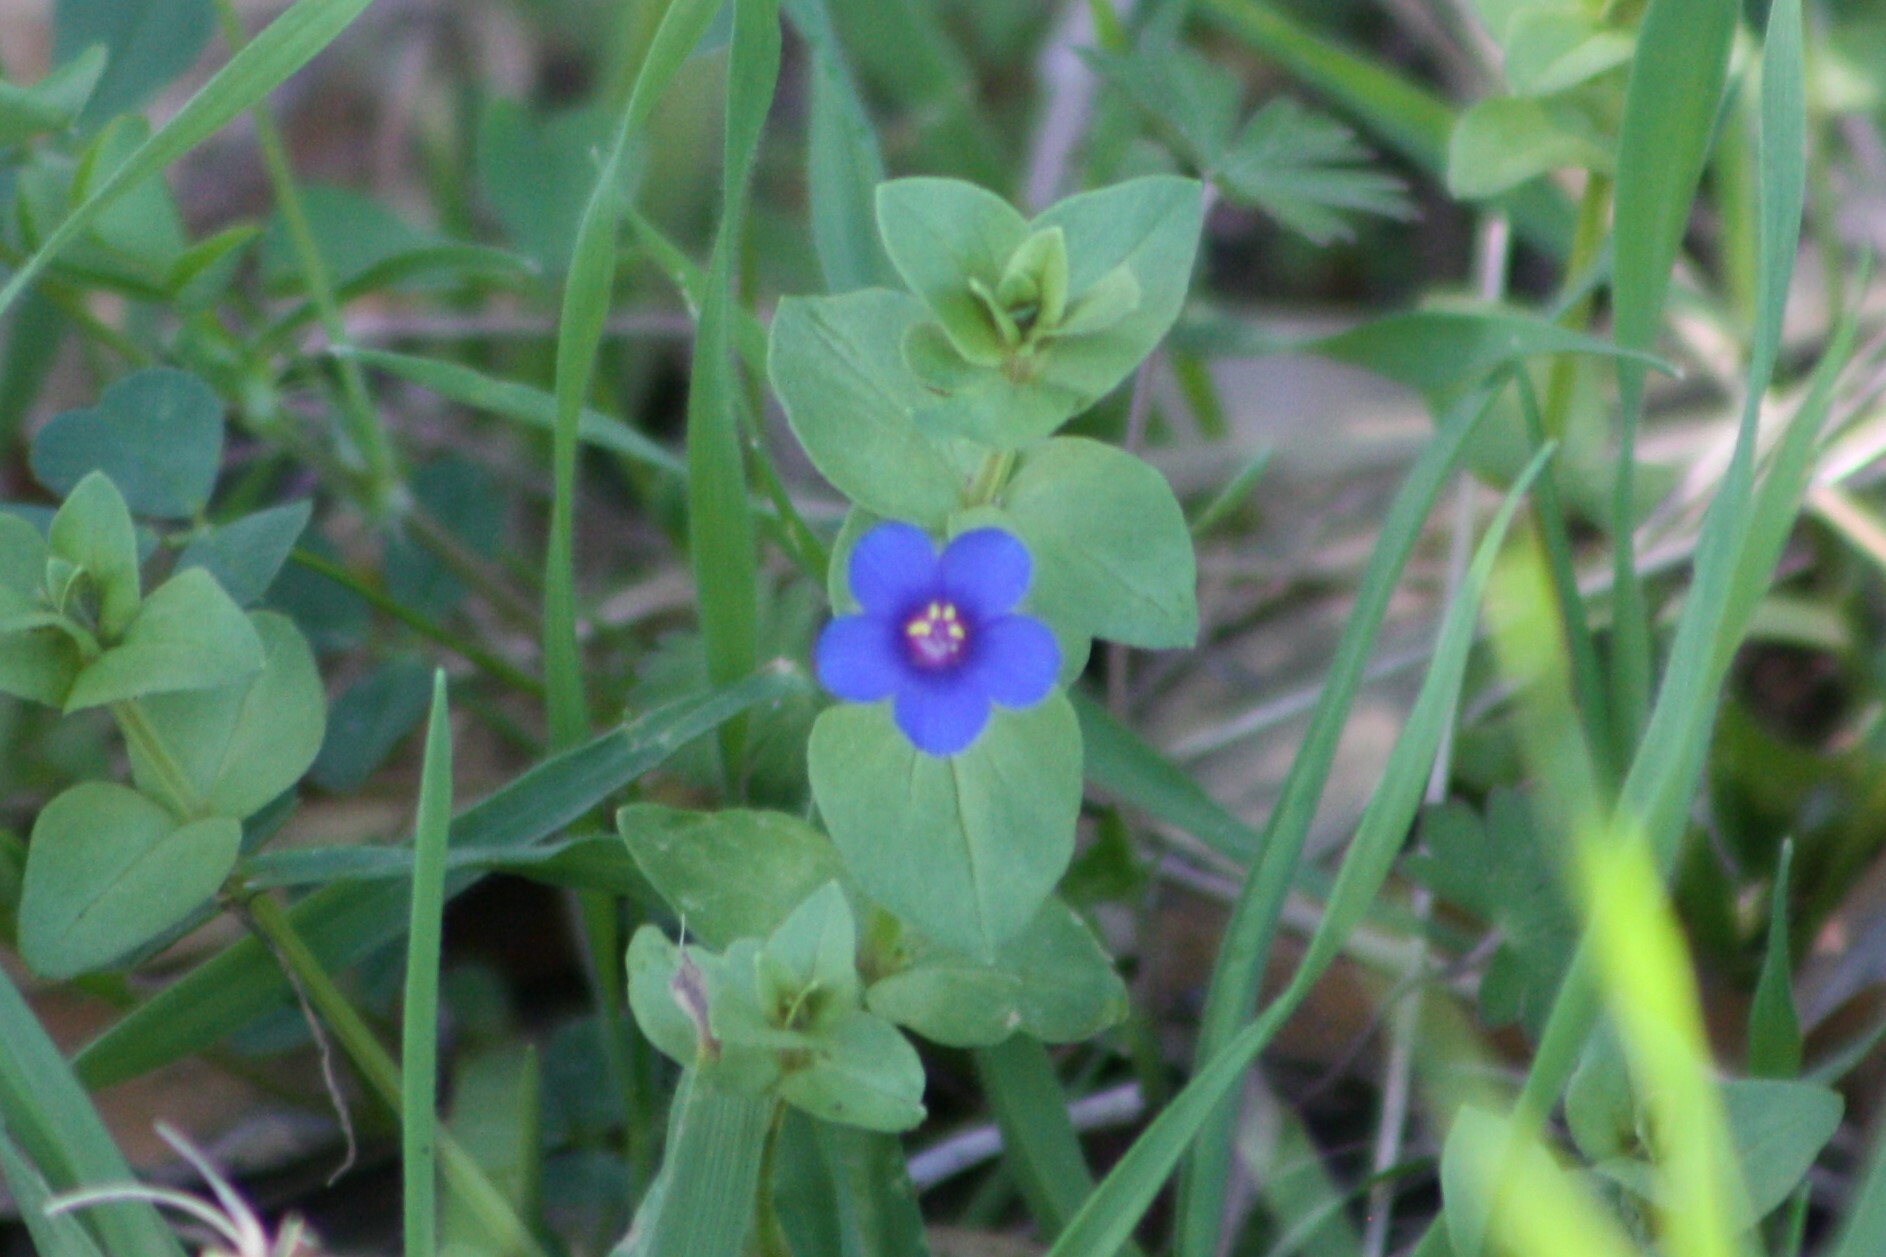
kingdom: Plantae
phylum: Tracheophyta
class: Magnoliopsida
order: Ericales
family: Primulaceae
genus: Lysimachia
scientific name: Lysimachia loeflingii
